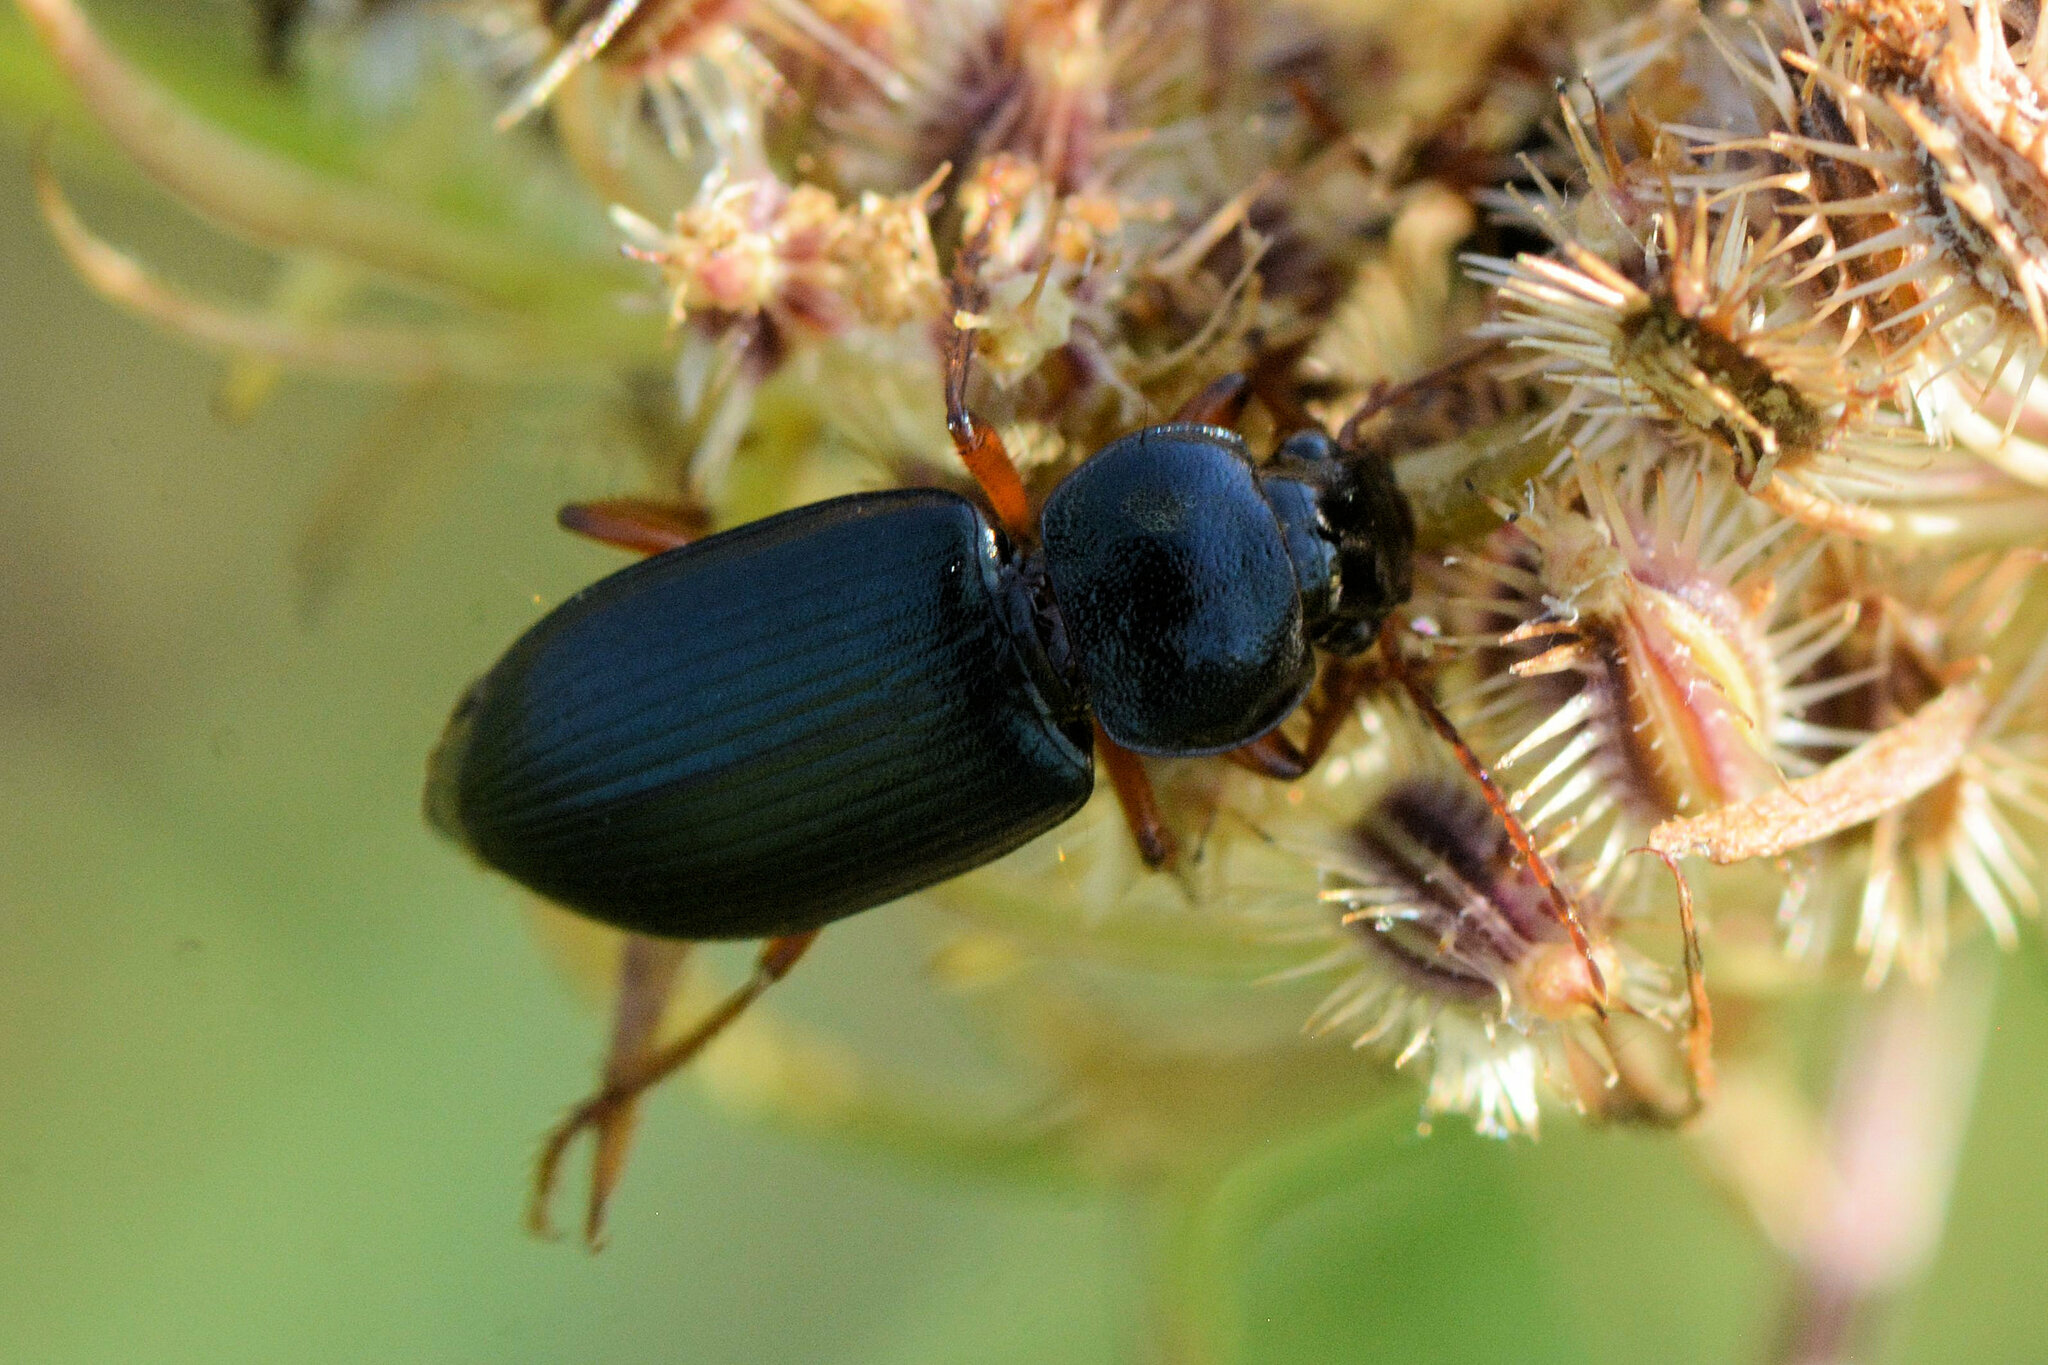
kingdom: Animalia
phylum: Arthropoda
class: Insecta
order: Coleoptera
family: Carabidae
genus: Ophonus
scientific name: Ophonus ardosiacus
